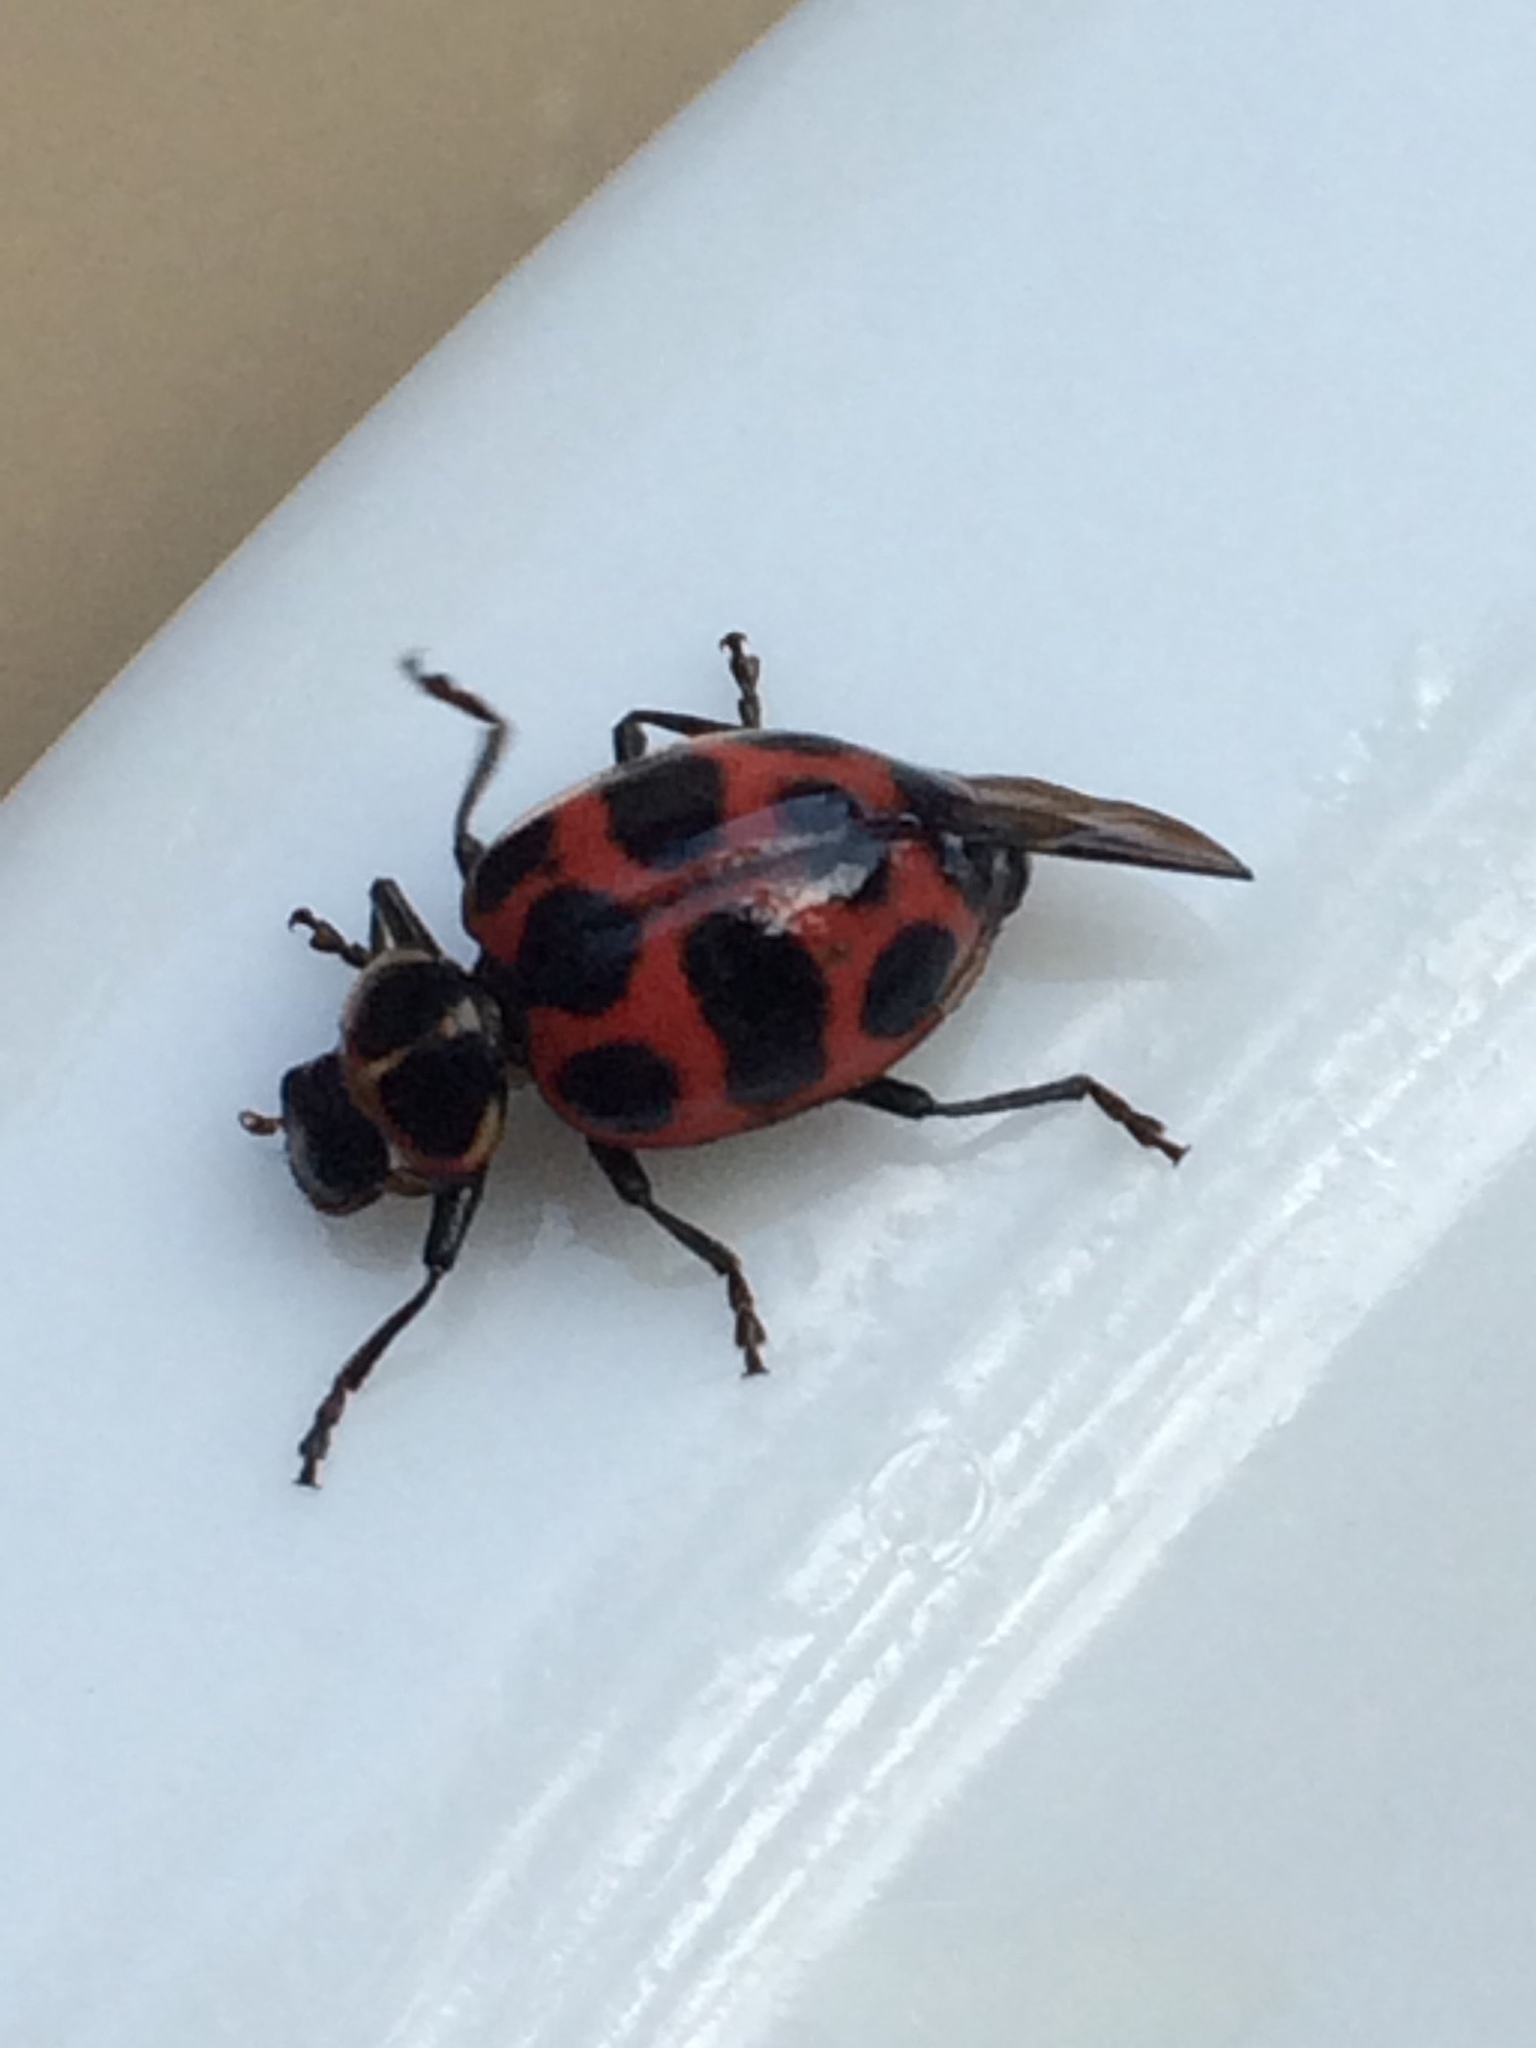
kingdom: Animalia
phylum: Arthropoda
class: Insecta
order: Coleoptera
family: Coccinellidae
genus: Coleomegilla
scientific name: Coleomegilla maculata
